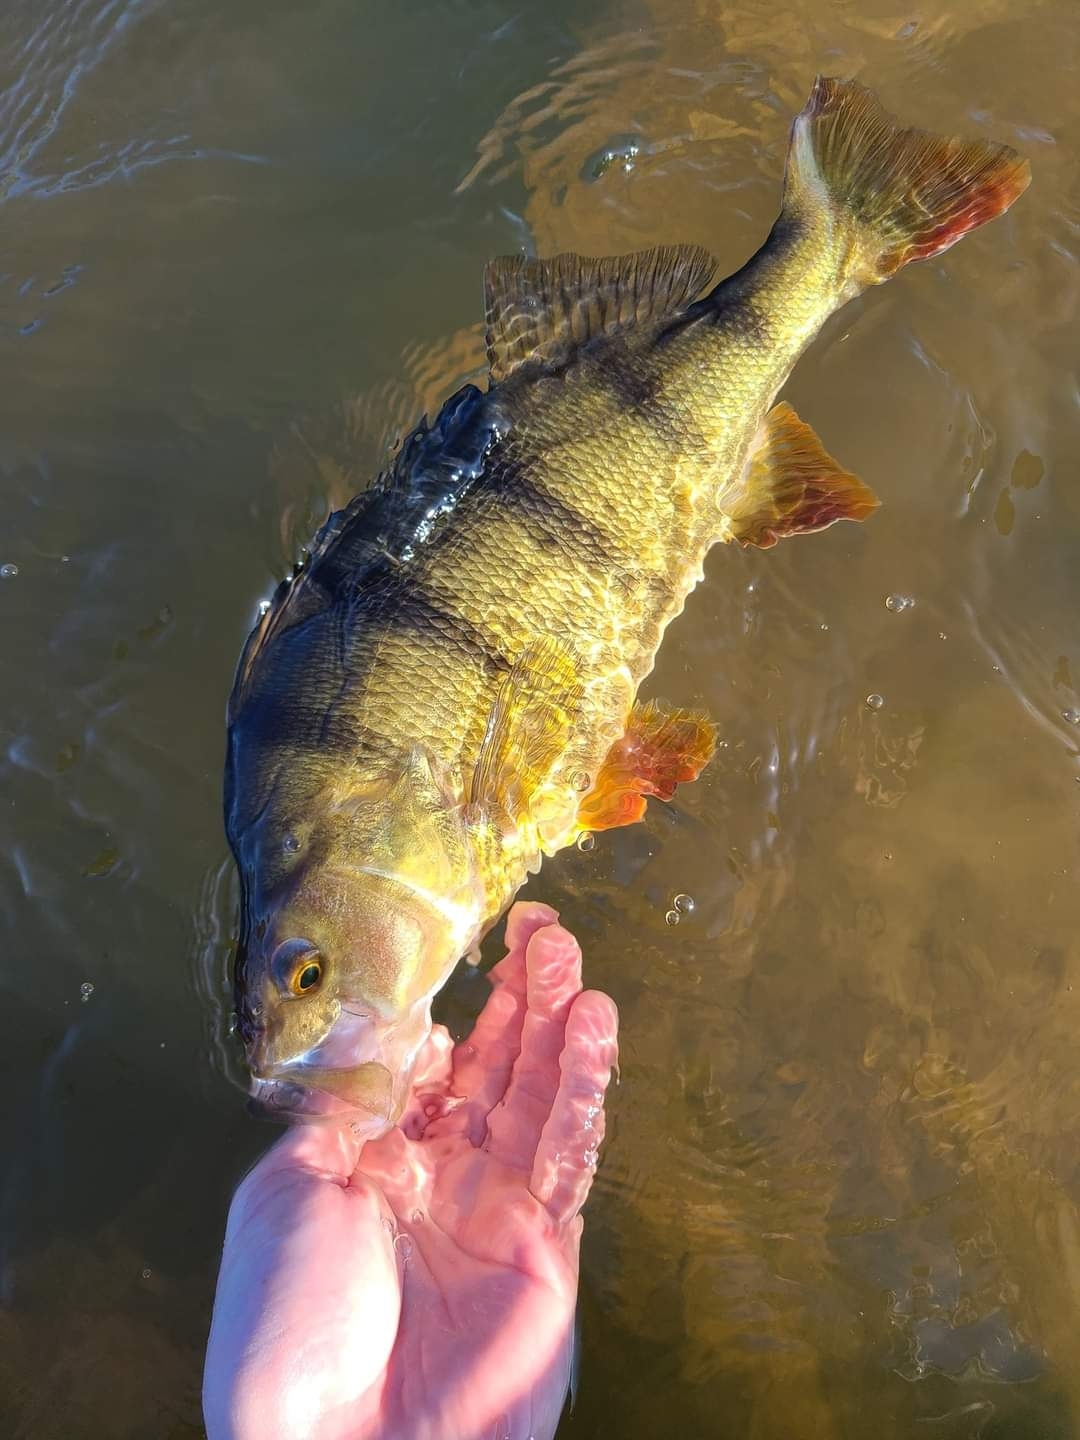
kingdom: Animalia
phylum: Chordata
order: Perciformes
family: Percidae
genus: Perca
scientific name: Perca fluviatilis
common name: Perch
